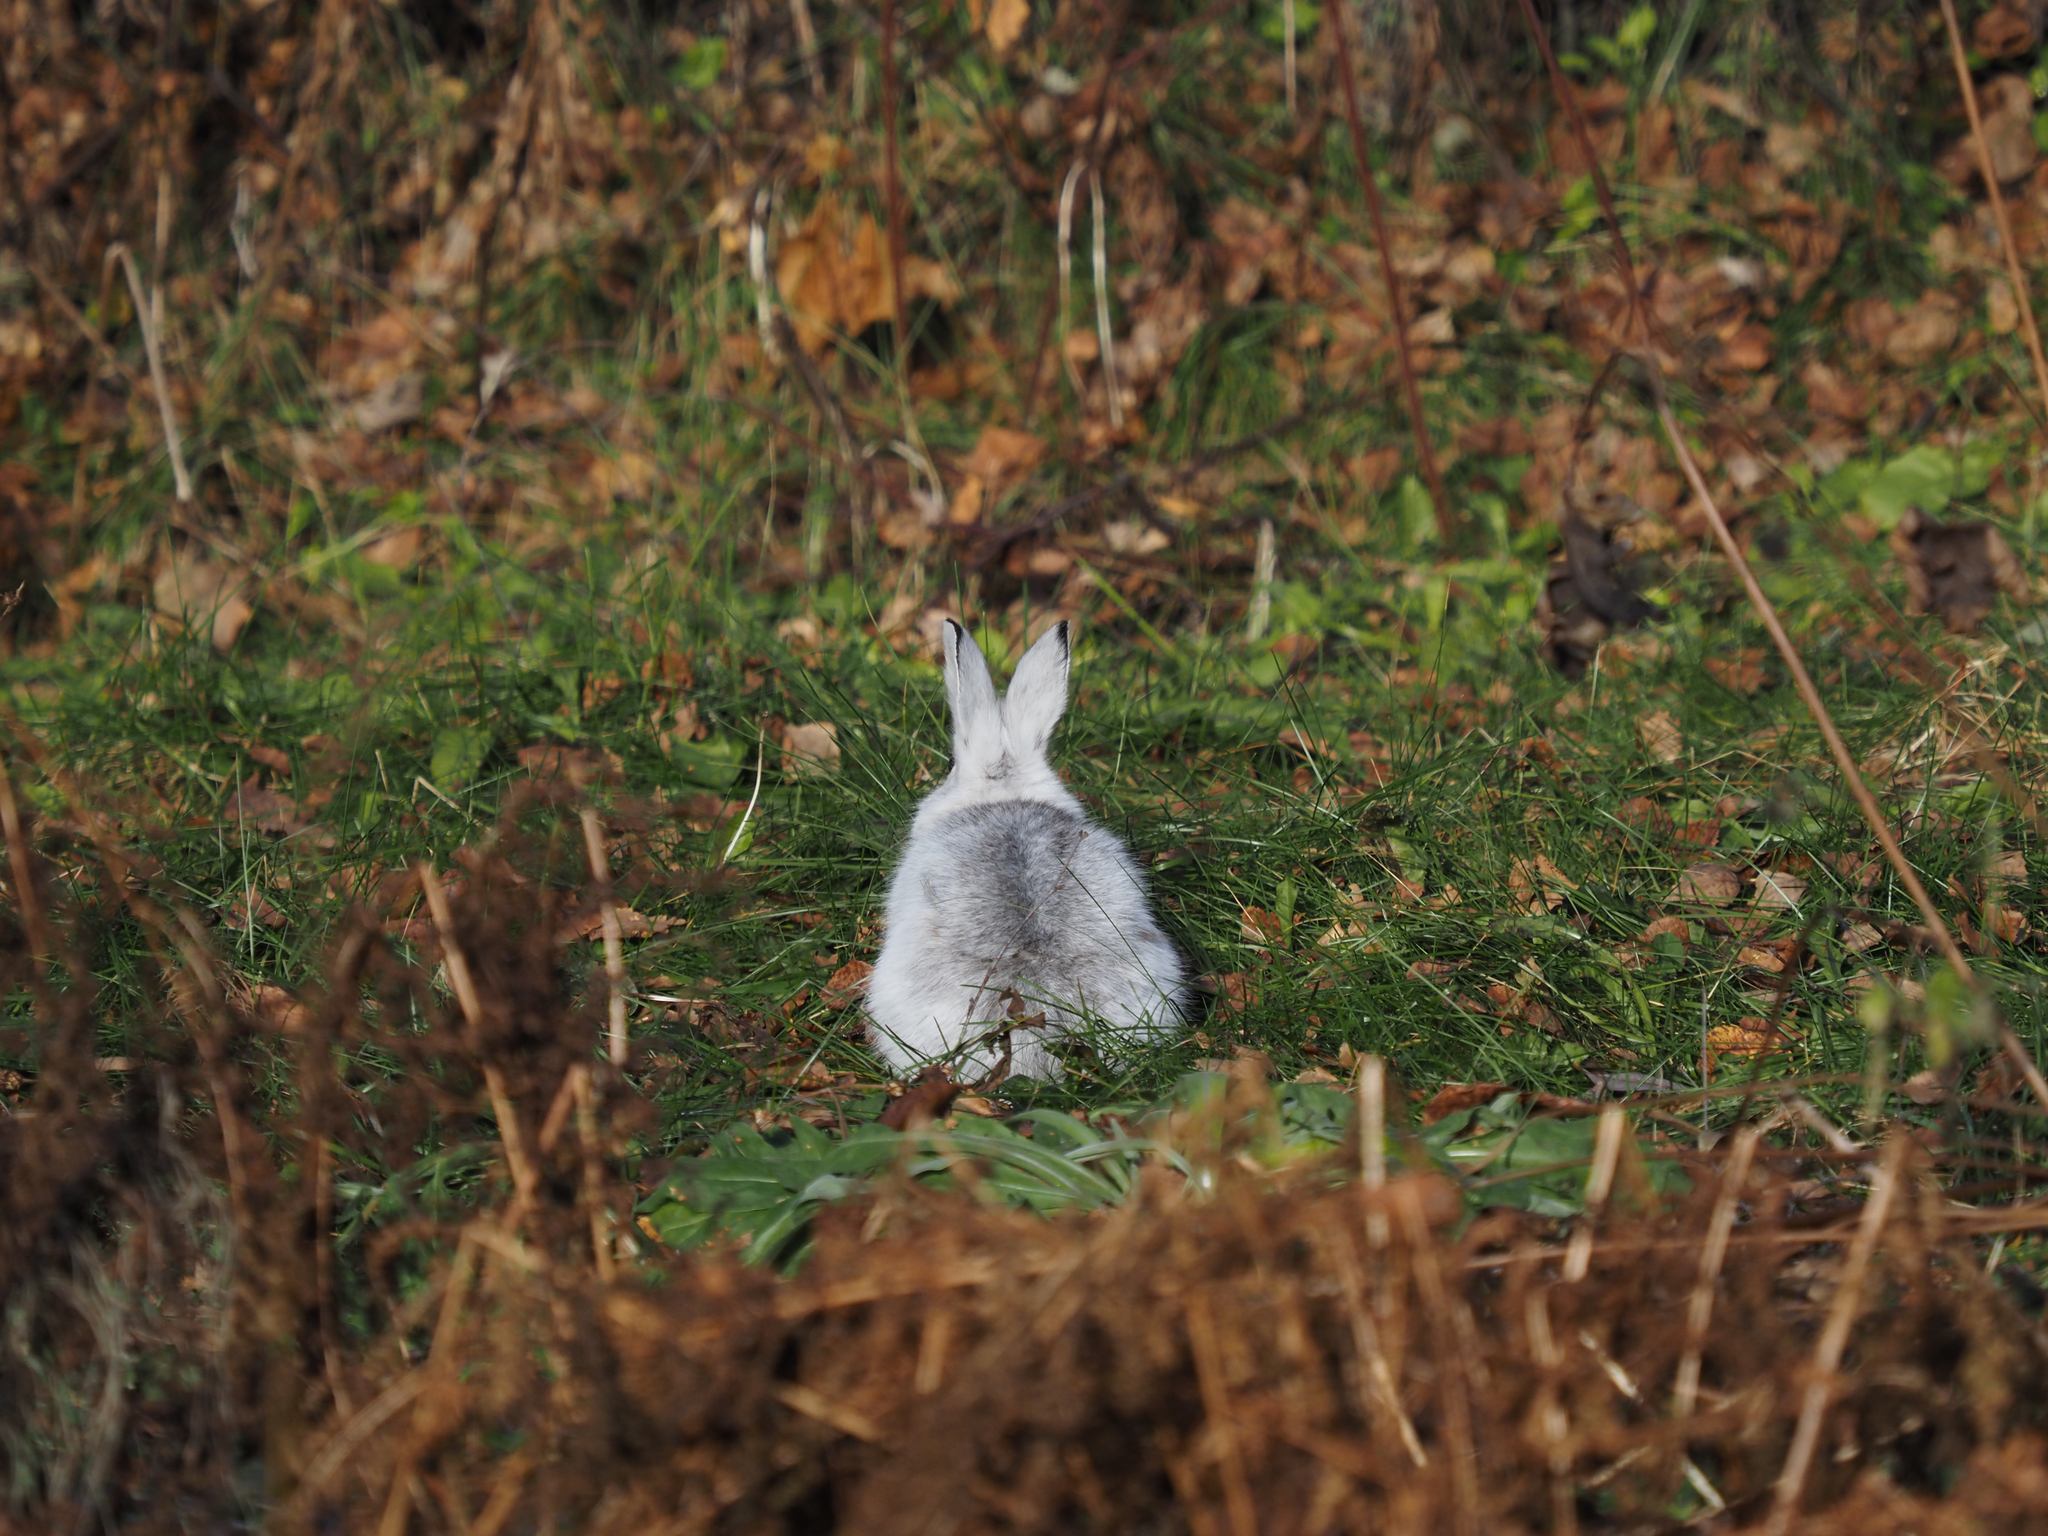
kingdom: Animalia
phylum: Chordata
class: Mammalia
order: Lagomorpha
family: Leporidae
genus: Lepus
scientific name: Lepus americanus
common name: Snowshoe hare
